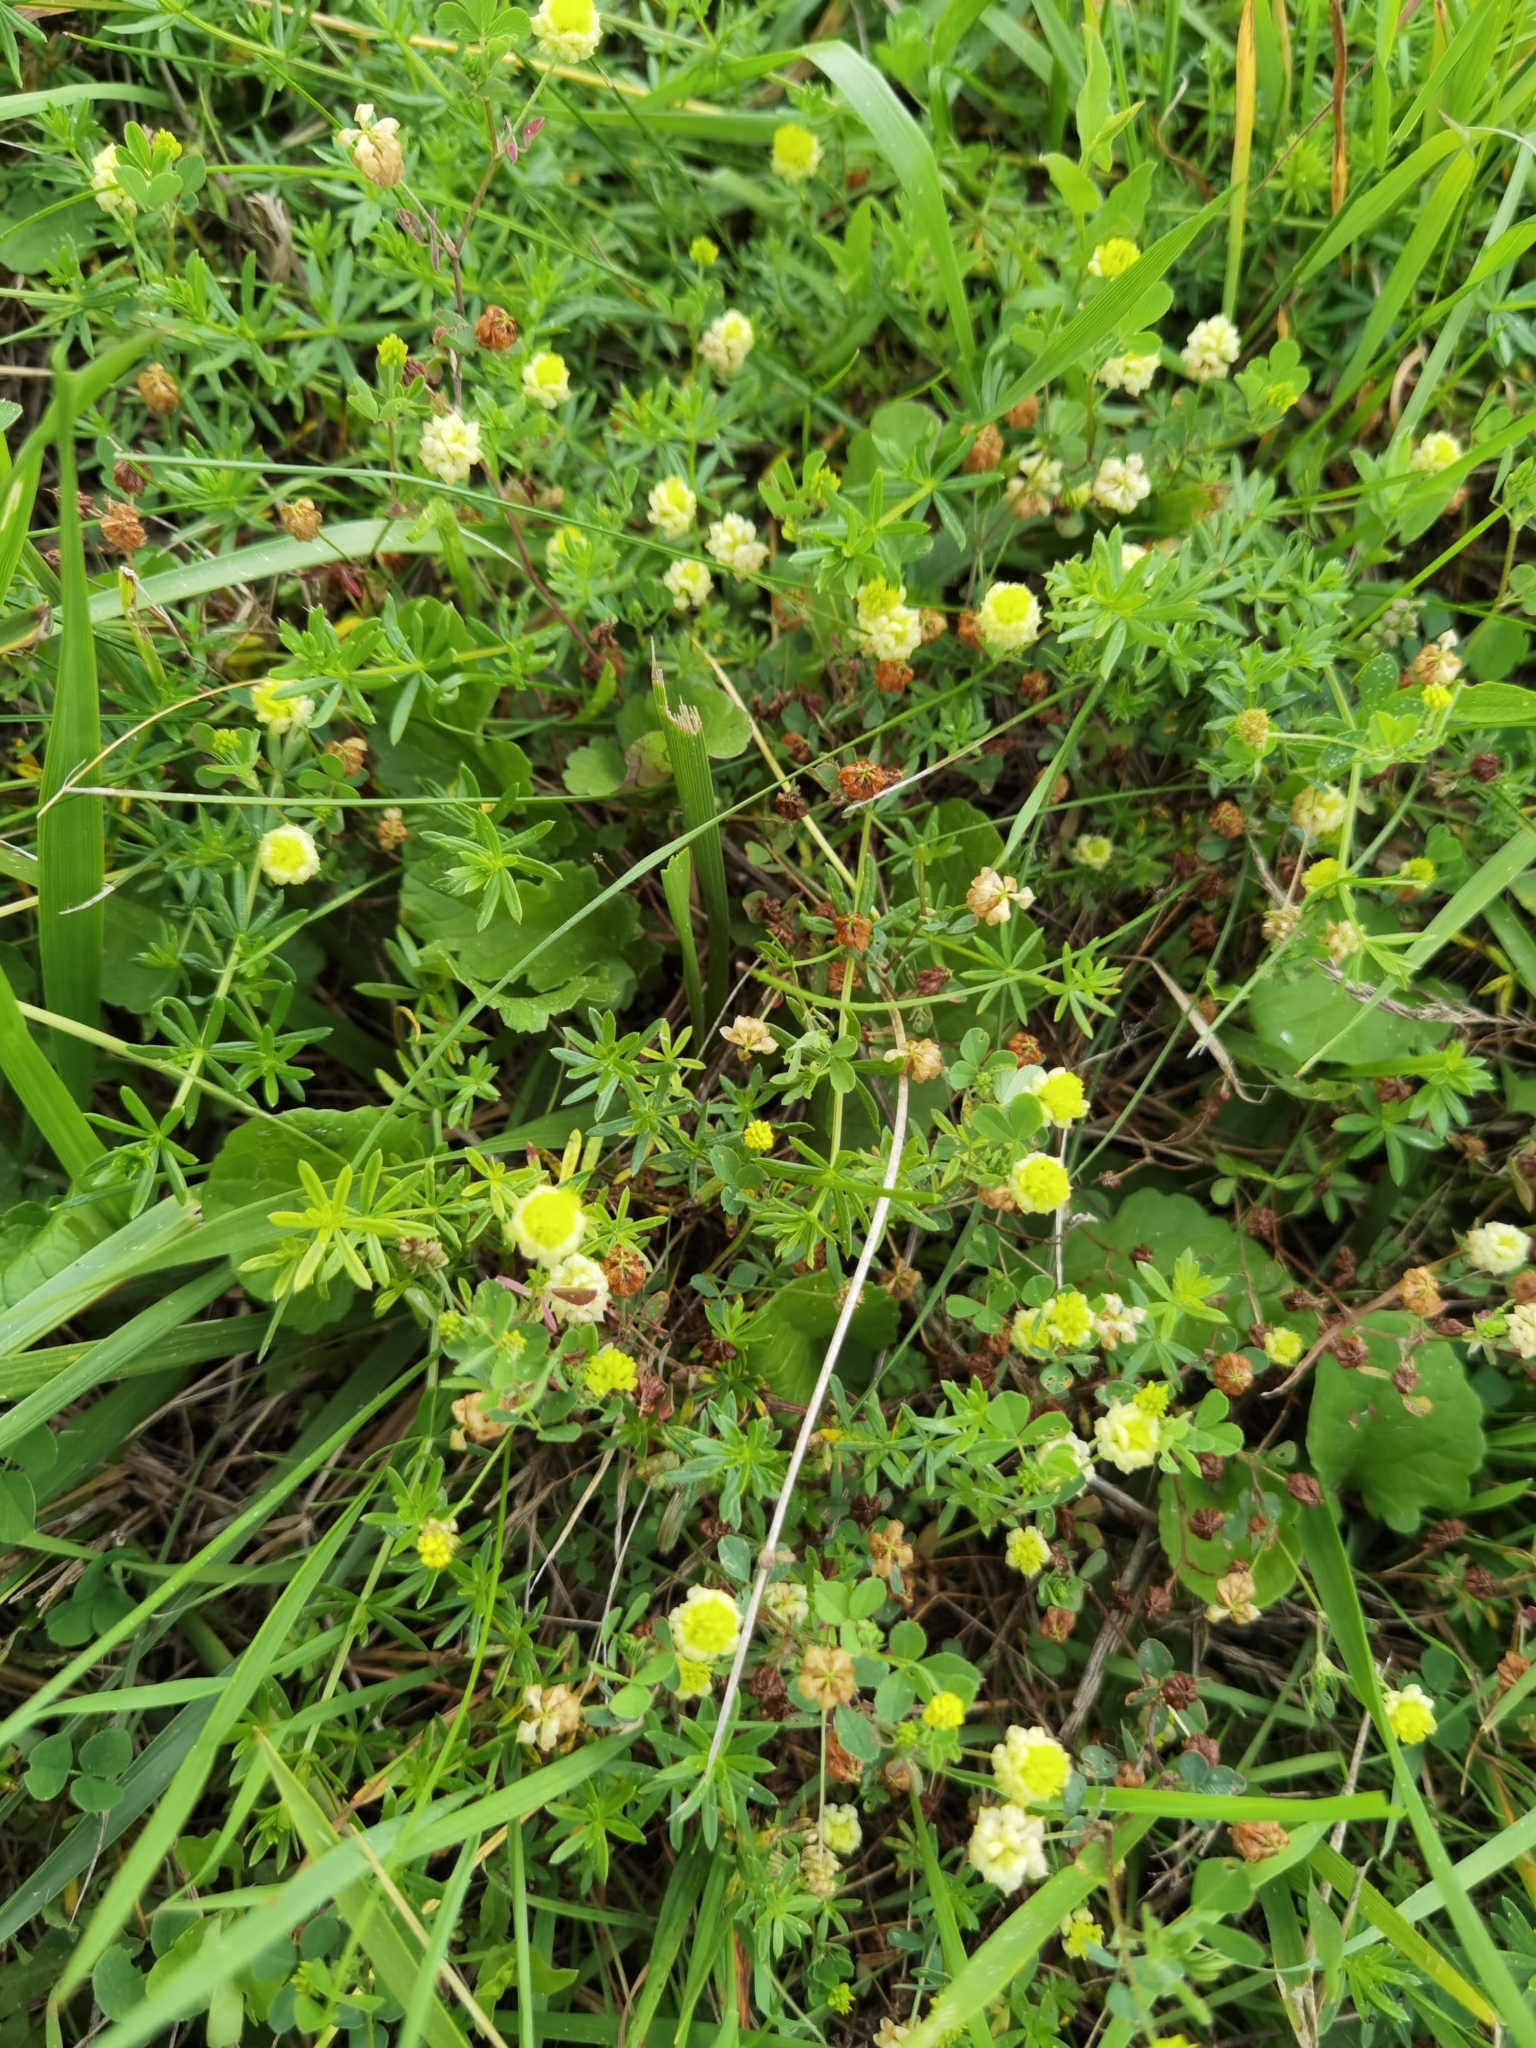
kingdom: Plantae
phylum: Tracheophyta
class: Magnoliopsida
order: Fabales
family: Fabaceae
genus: Trifolium
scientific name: Trifolium campestre
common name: Field clover
